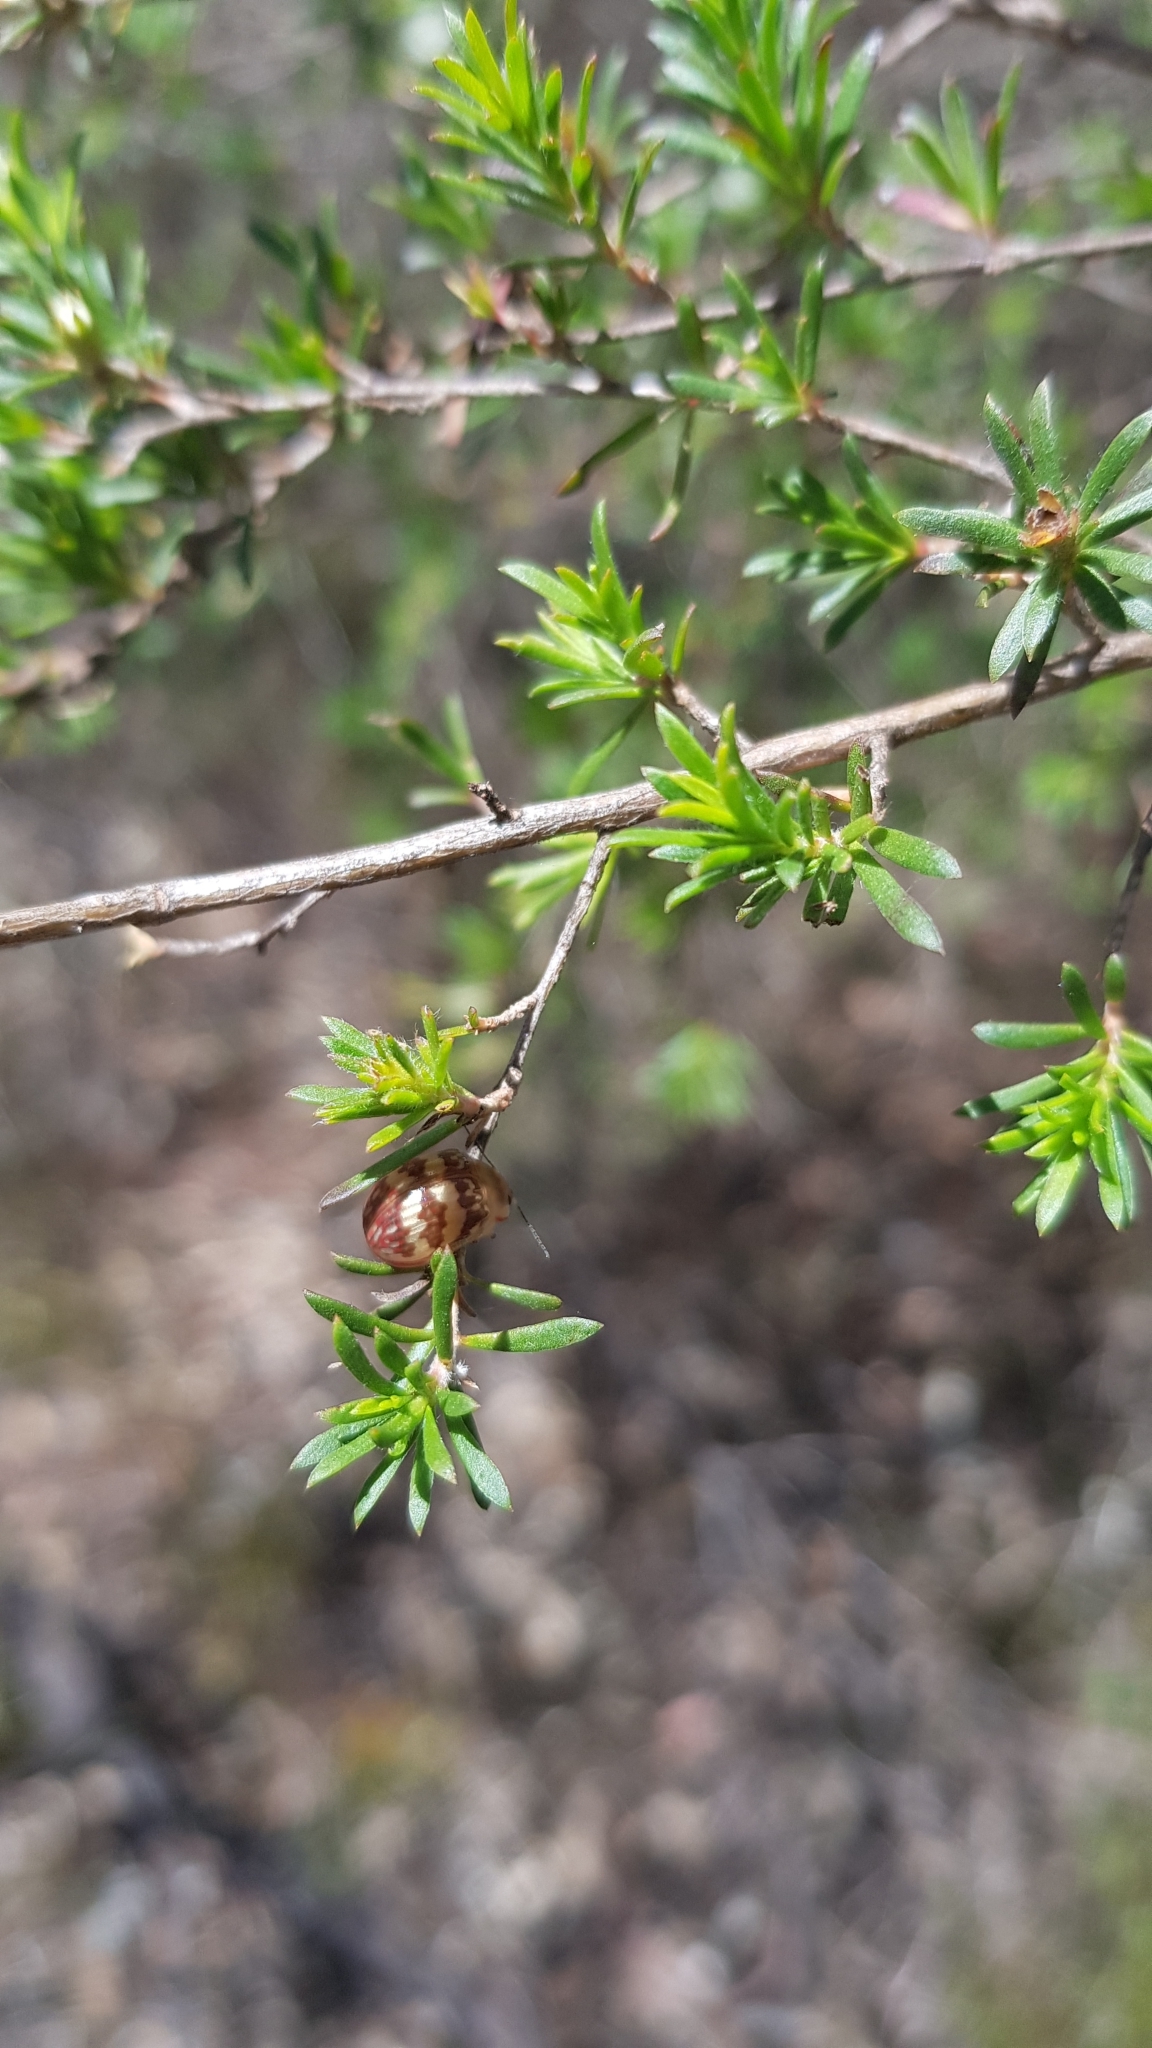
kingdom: Animalia
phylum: Arthropoda
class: Insecta
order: Coleoptera
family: Chrysomelidae
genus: Paropsis
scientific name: Paropsis
